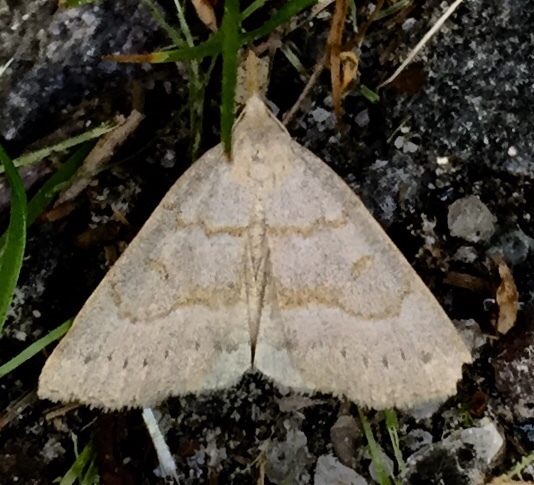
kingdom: Animalia
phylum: Arthropoda
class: Insecta
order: Lepidoptera
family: Erebidae
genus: Macrochilo
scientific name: Macrochilo morbidalis
